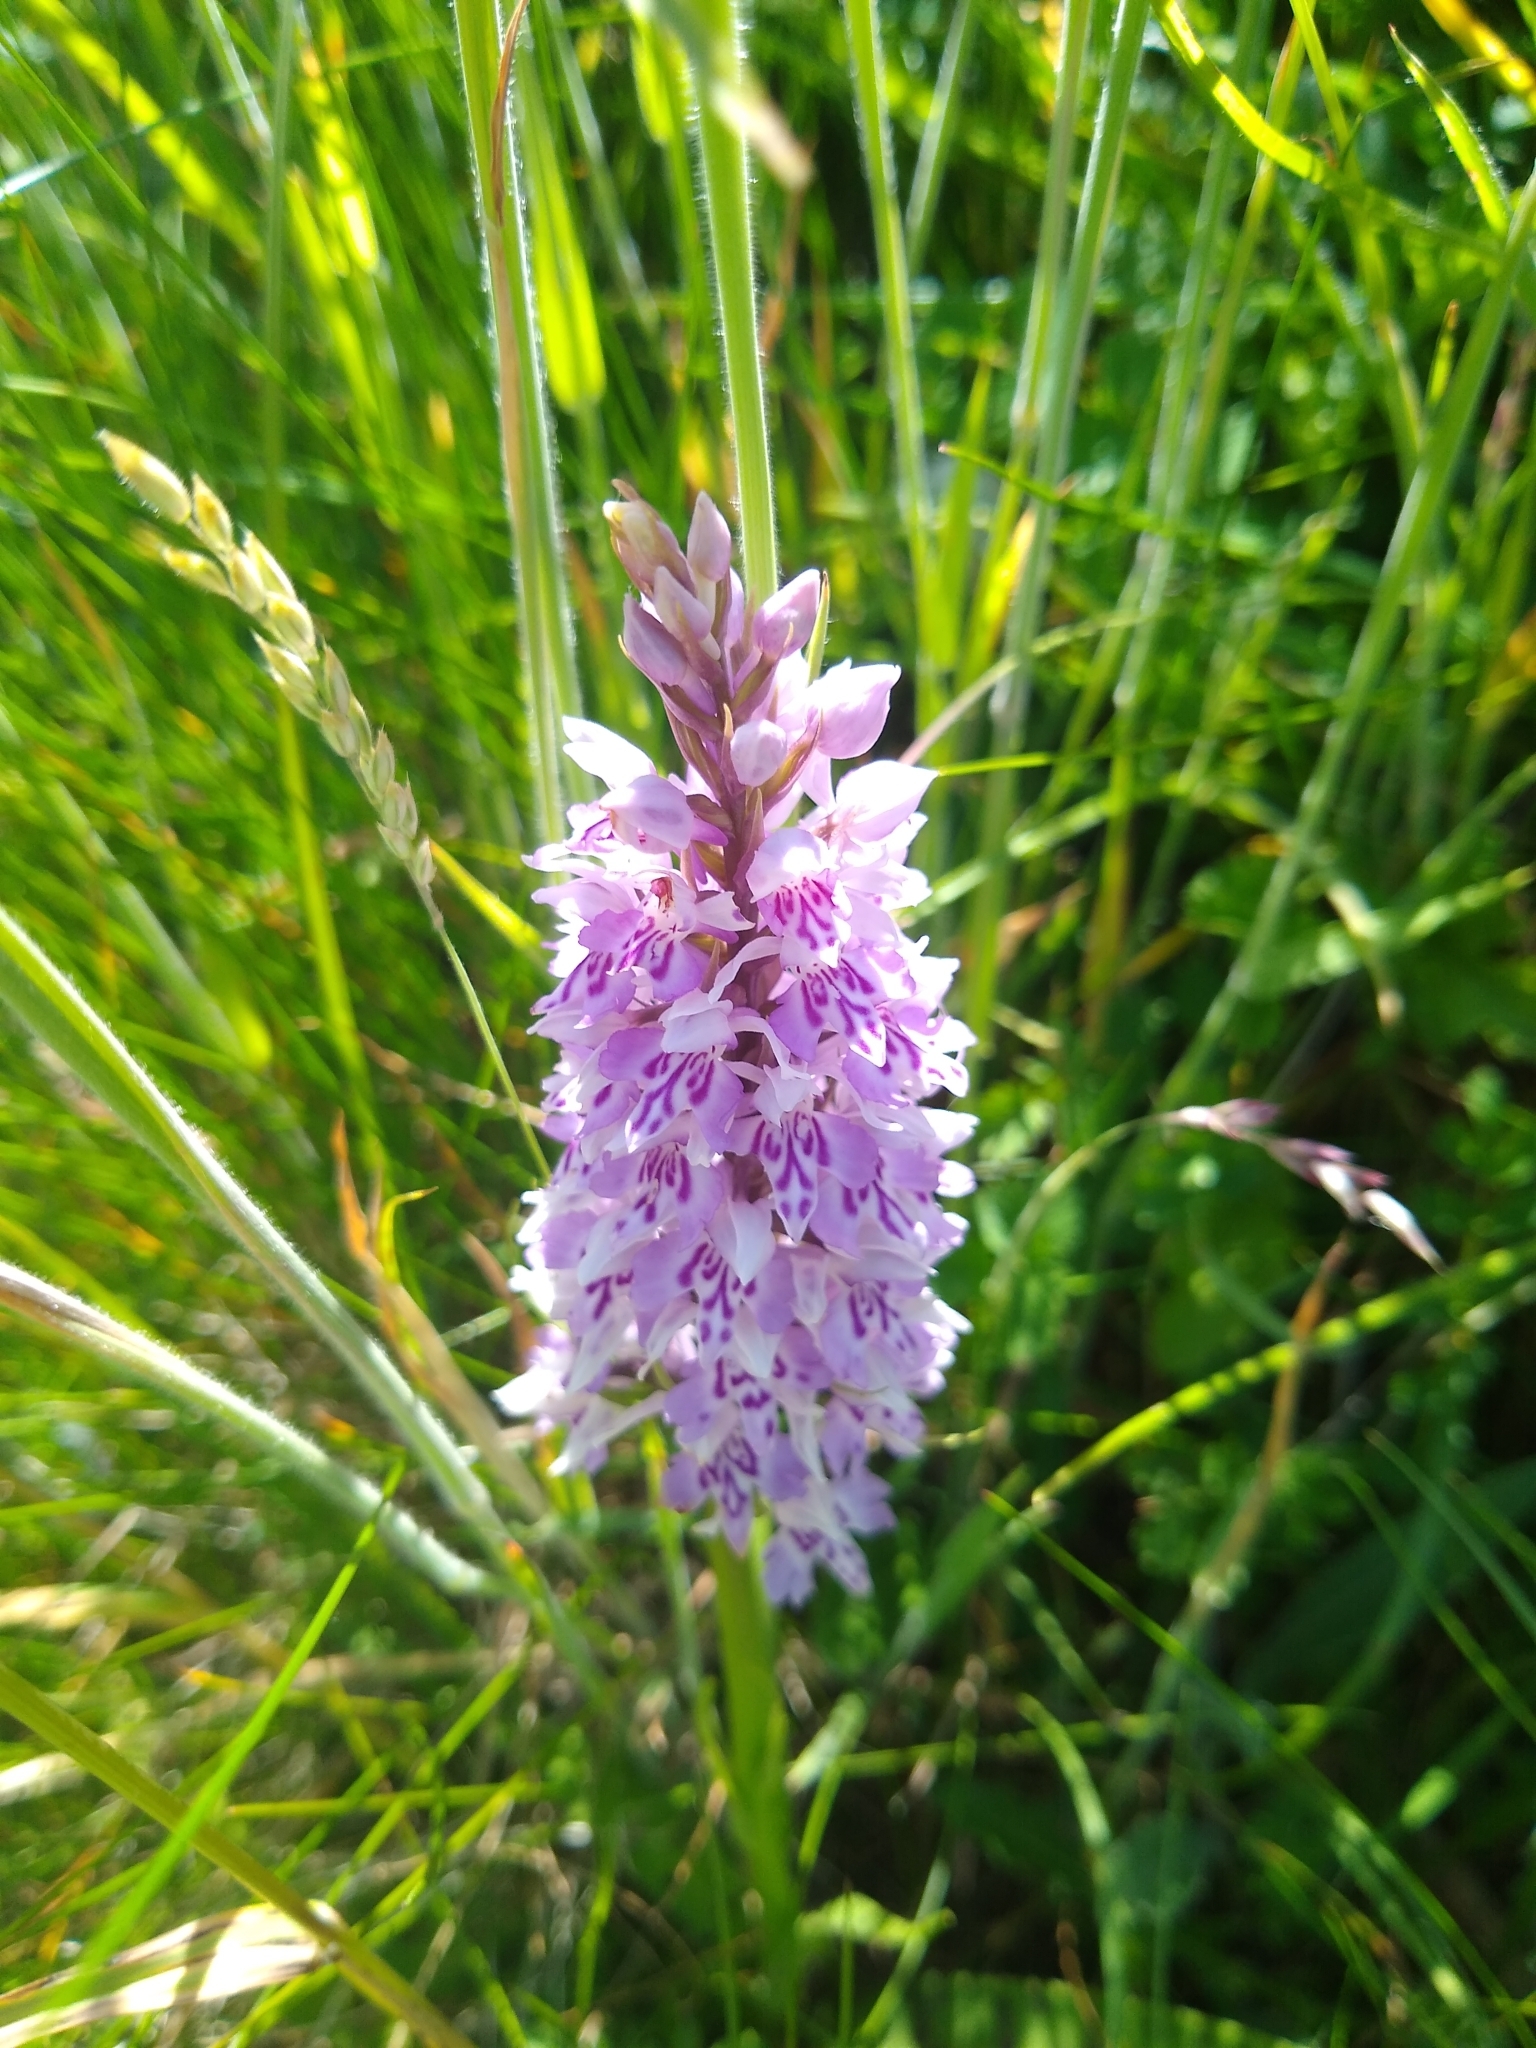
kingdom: Plantae
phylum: Tracheophyta
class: Liliopsida
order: Asparagales
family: Orchidaceae
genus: Dactylorhiza
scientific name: Dactylorhiza maculata
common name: Heath spotted-orchid
